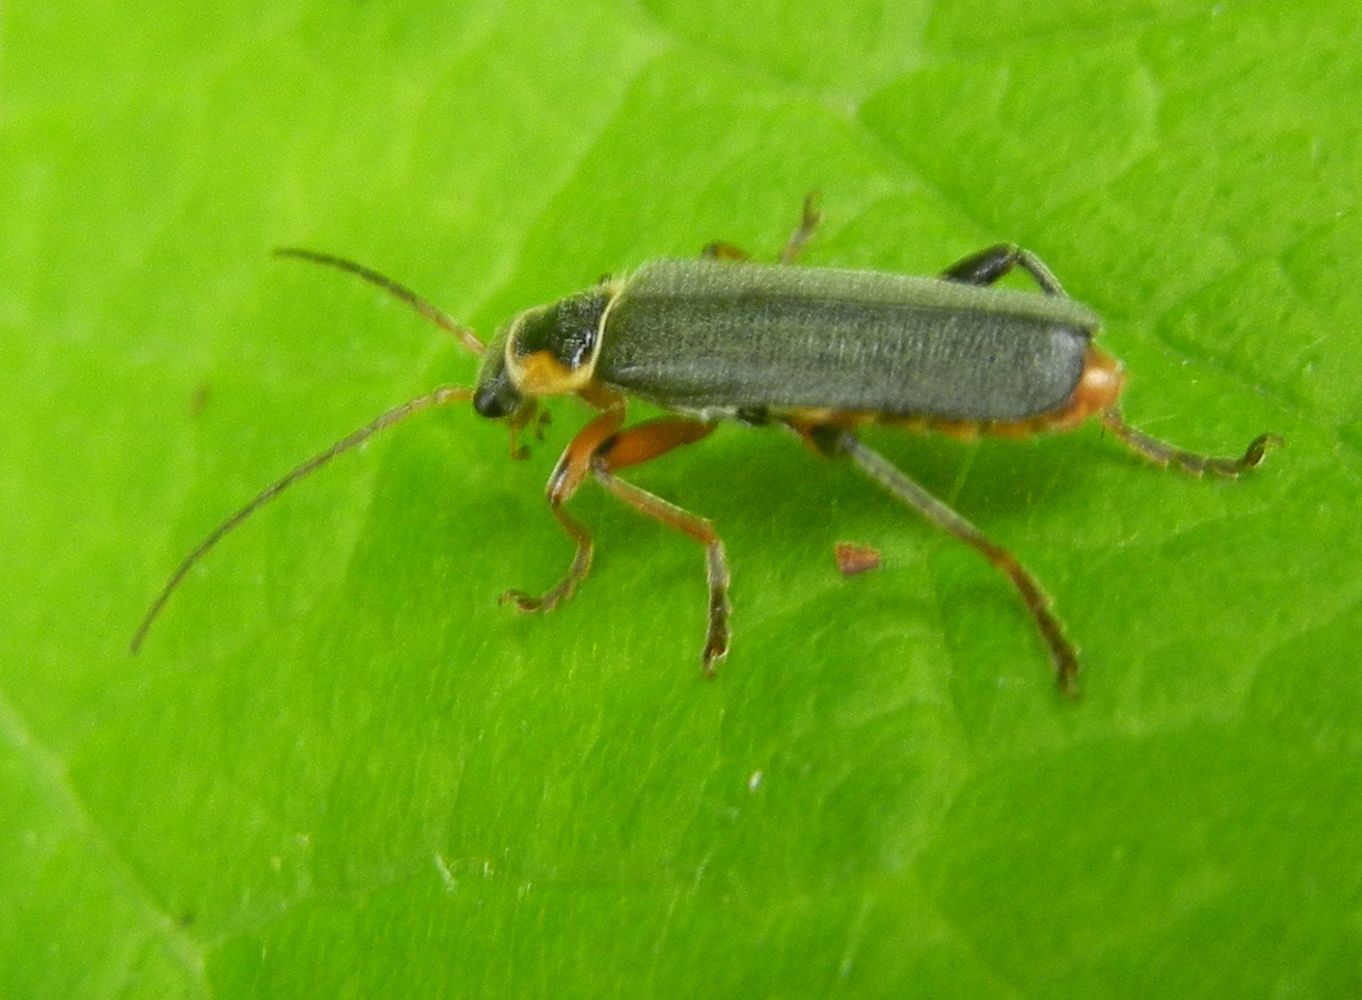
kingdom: Animalia
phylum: Arthropoda
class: Insecta
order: Coleoptera
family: Cantharidae
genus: Cantharis
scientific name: Cantharis nigricans
